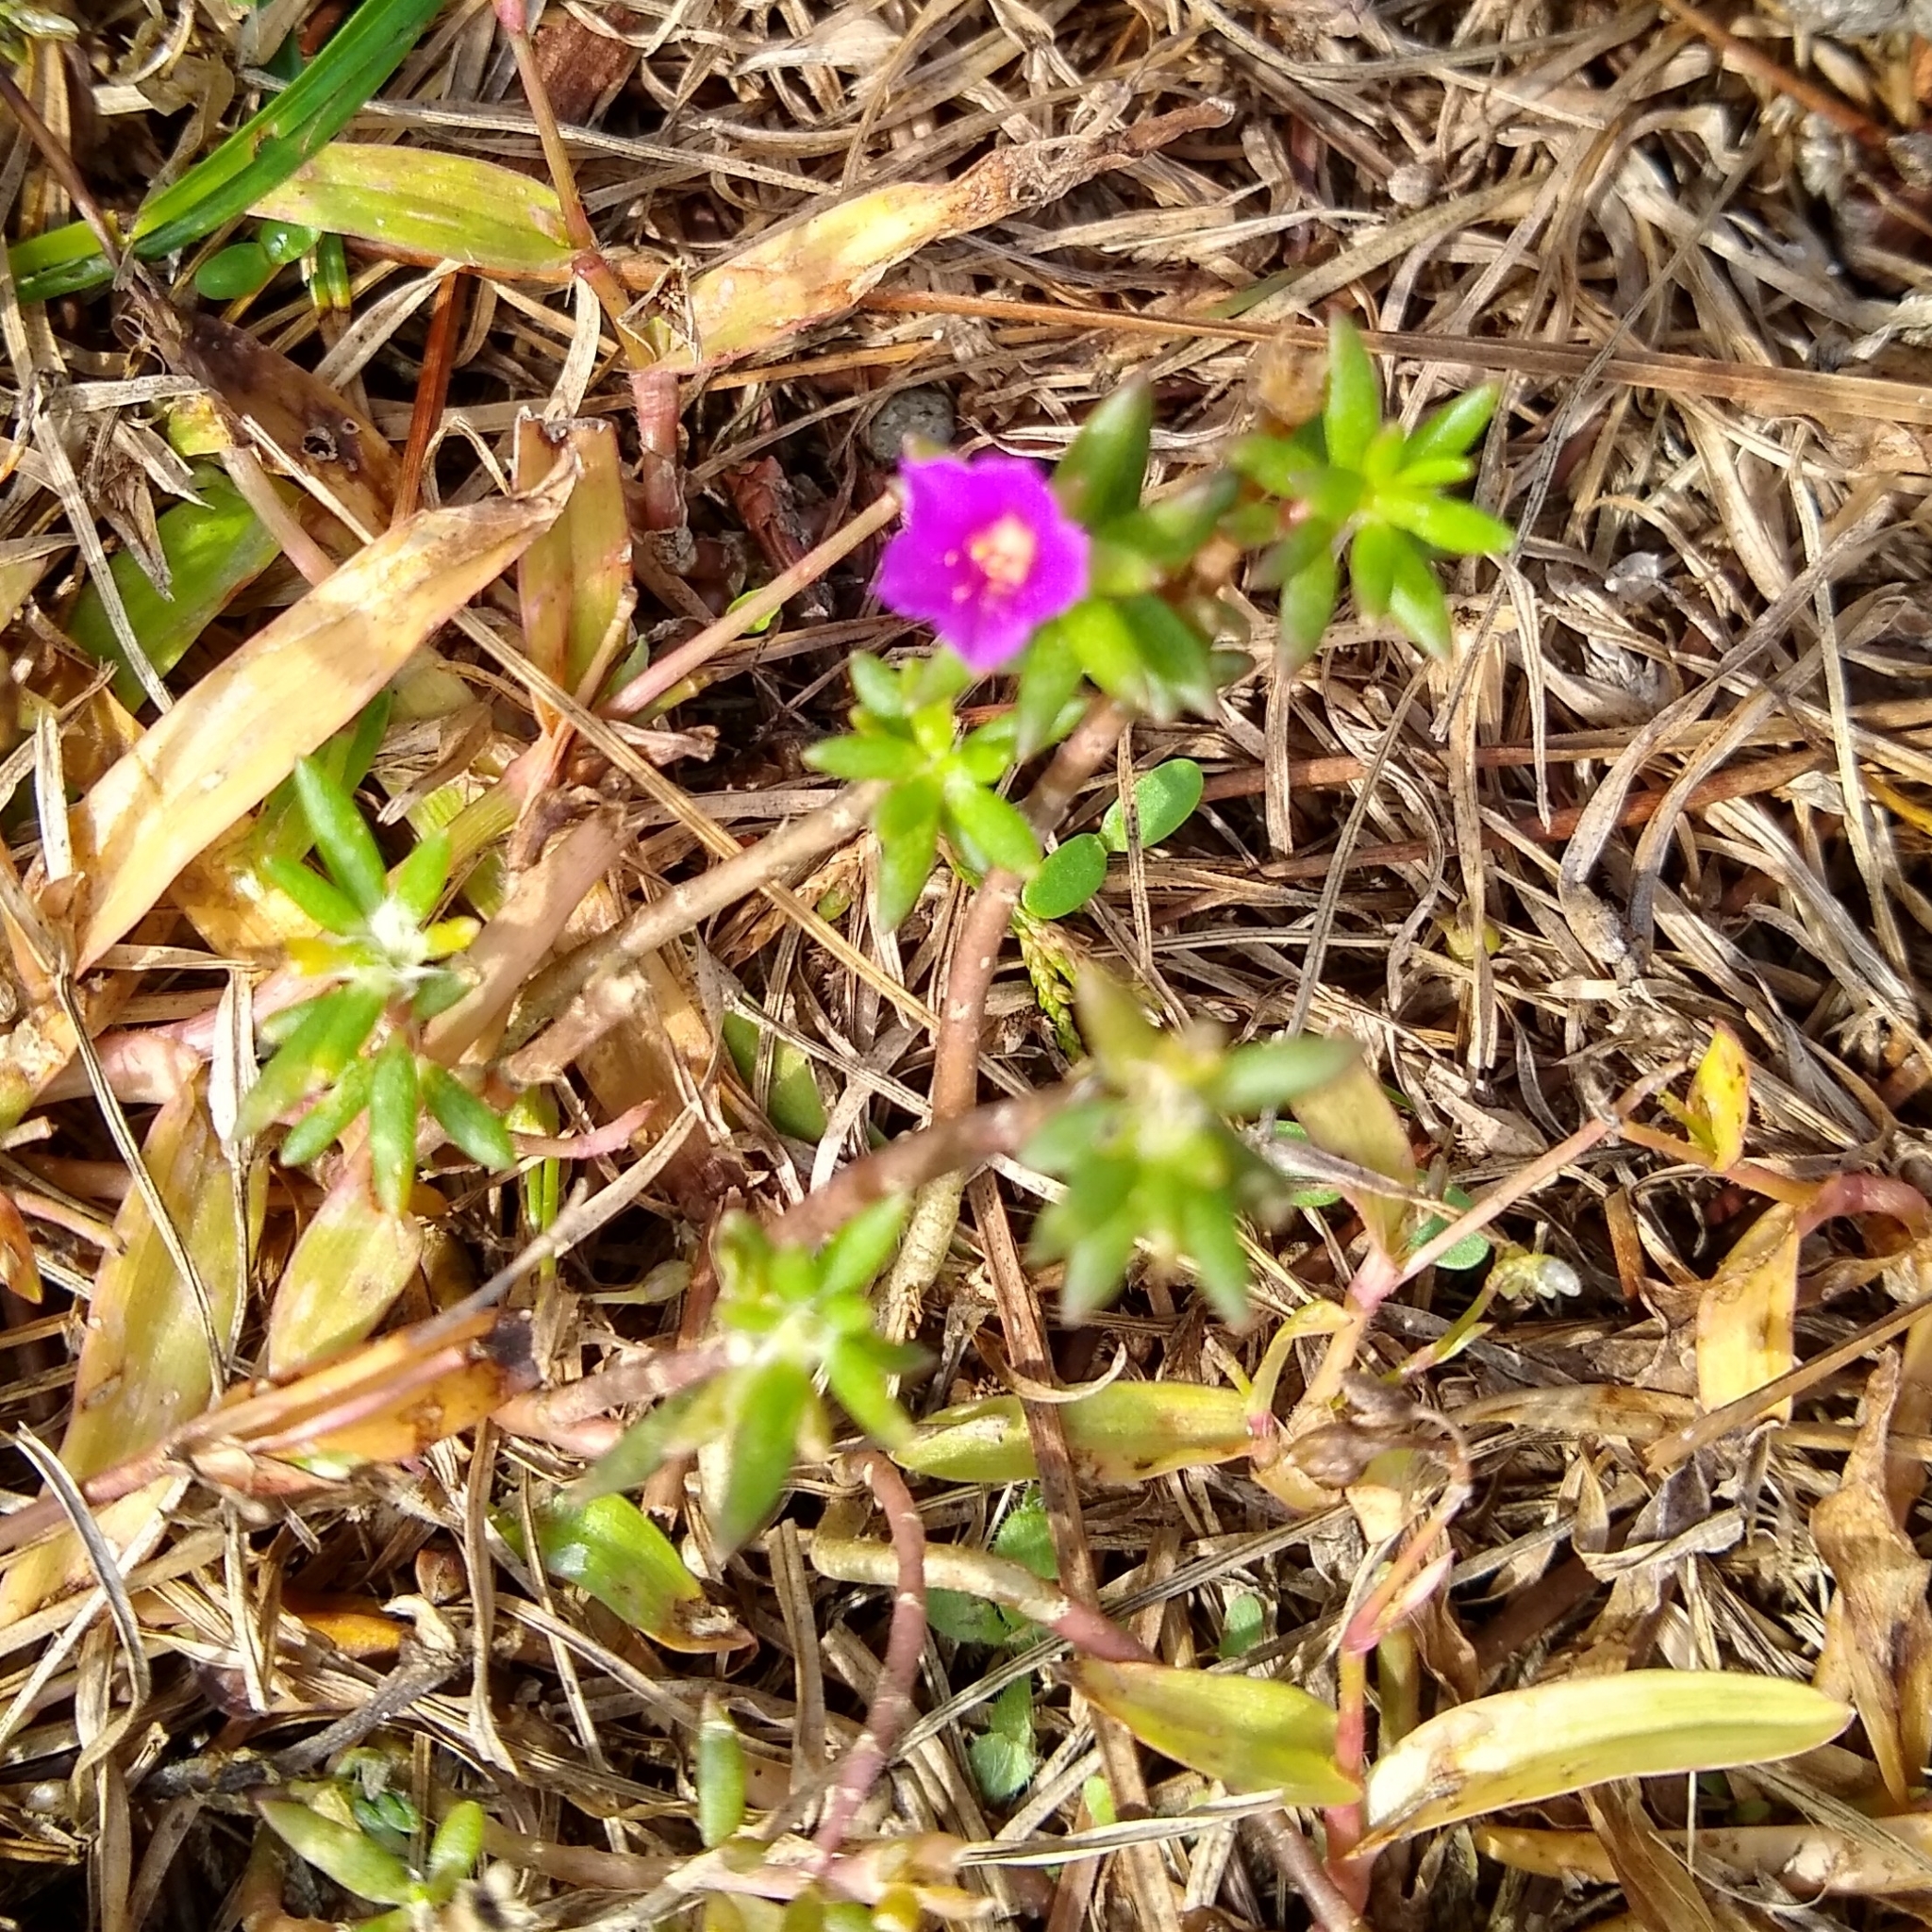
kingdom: Plantae
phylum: Tracheophyta
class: Magnoliopsida
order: Caryophyllales
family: Portulacaceae
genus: Portulaca
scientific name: Portulaca pilosa
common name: Kiss me quick
